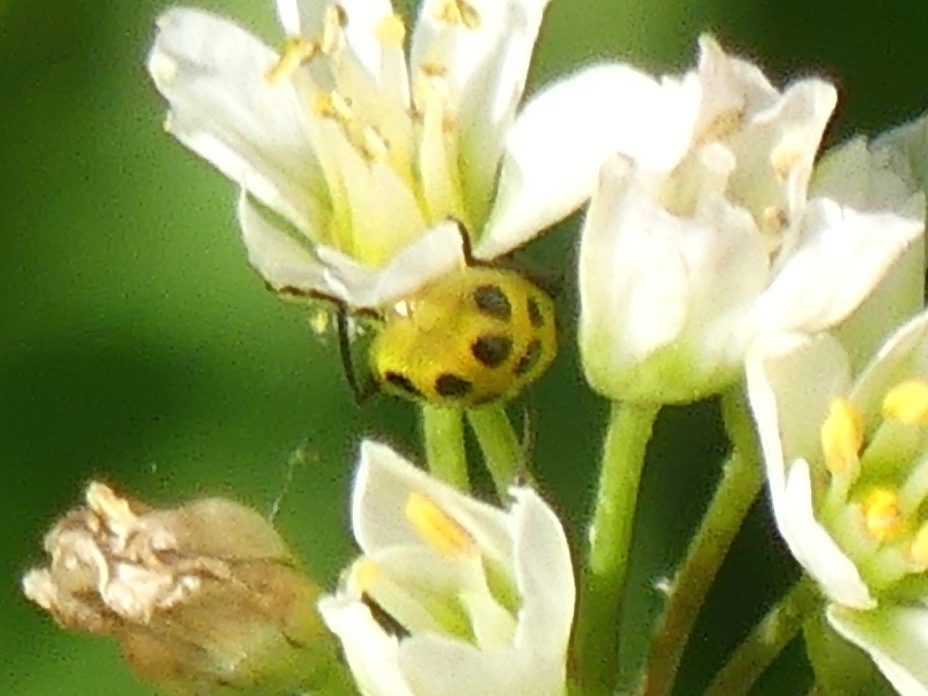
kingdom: Animalia
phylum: Arthropoda
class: Insecta
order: Coleoptera
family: Chrysomelidae
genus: Diabrotica
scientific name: Diabrotica undecimpunctata
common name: Spotted cucumber beetle
